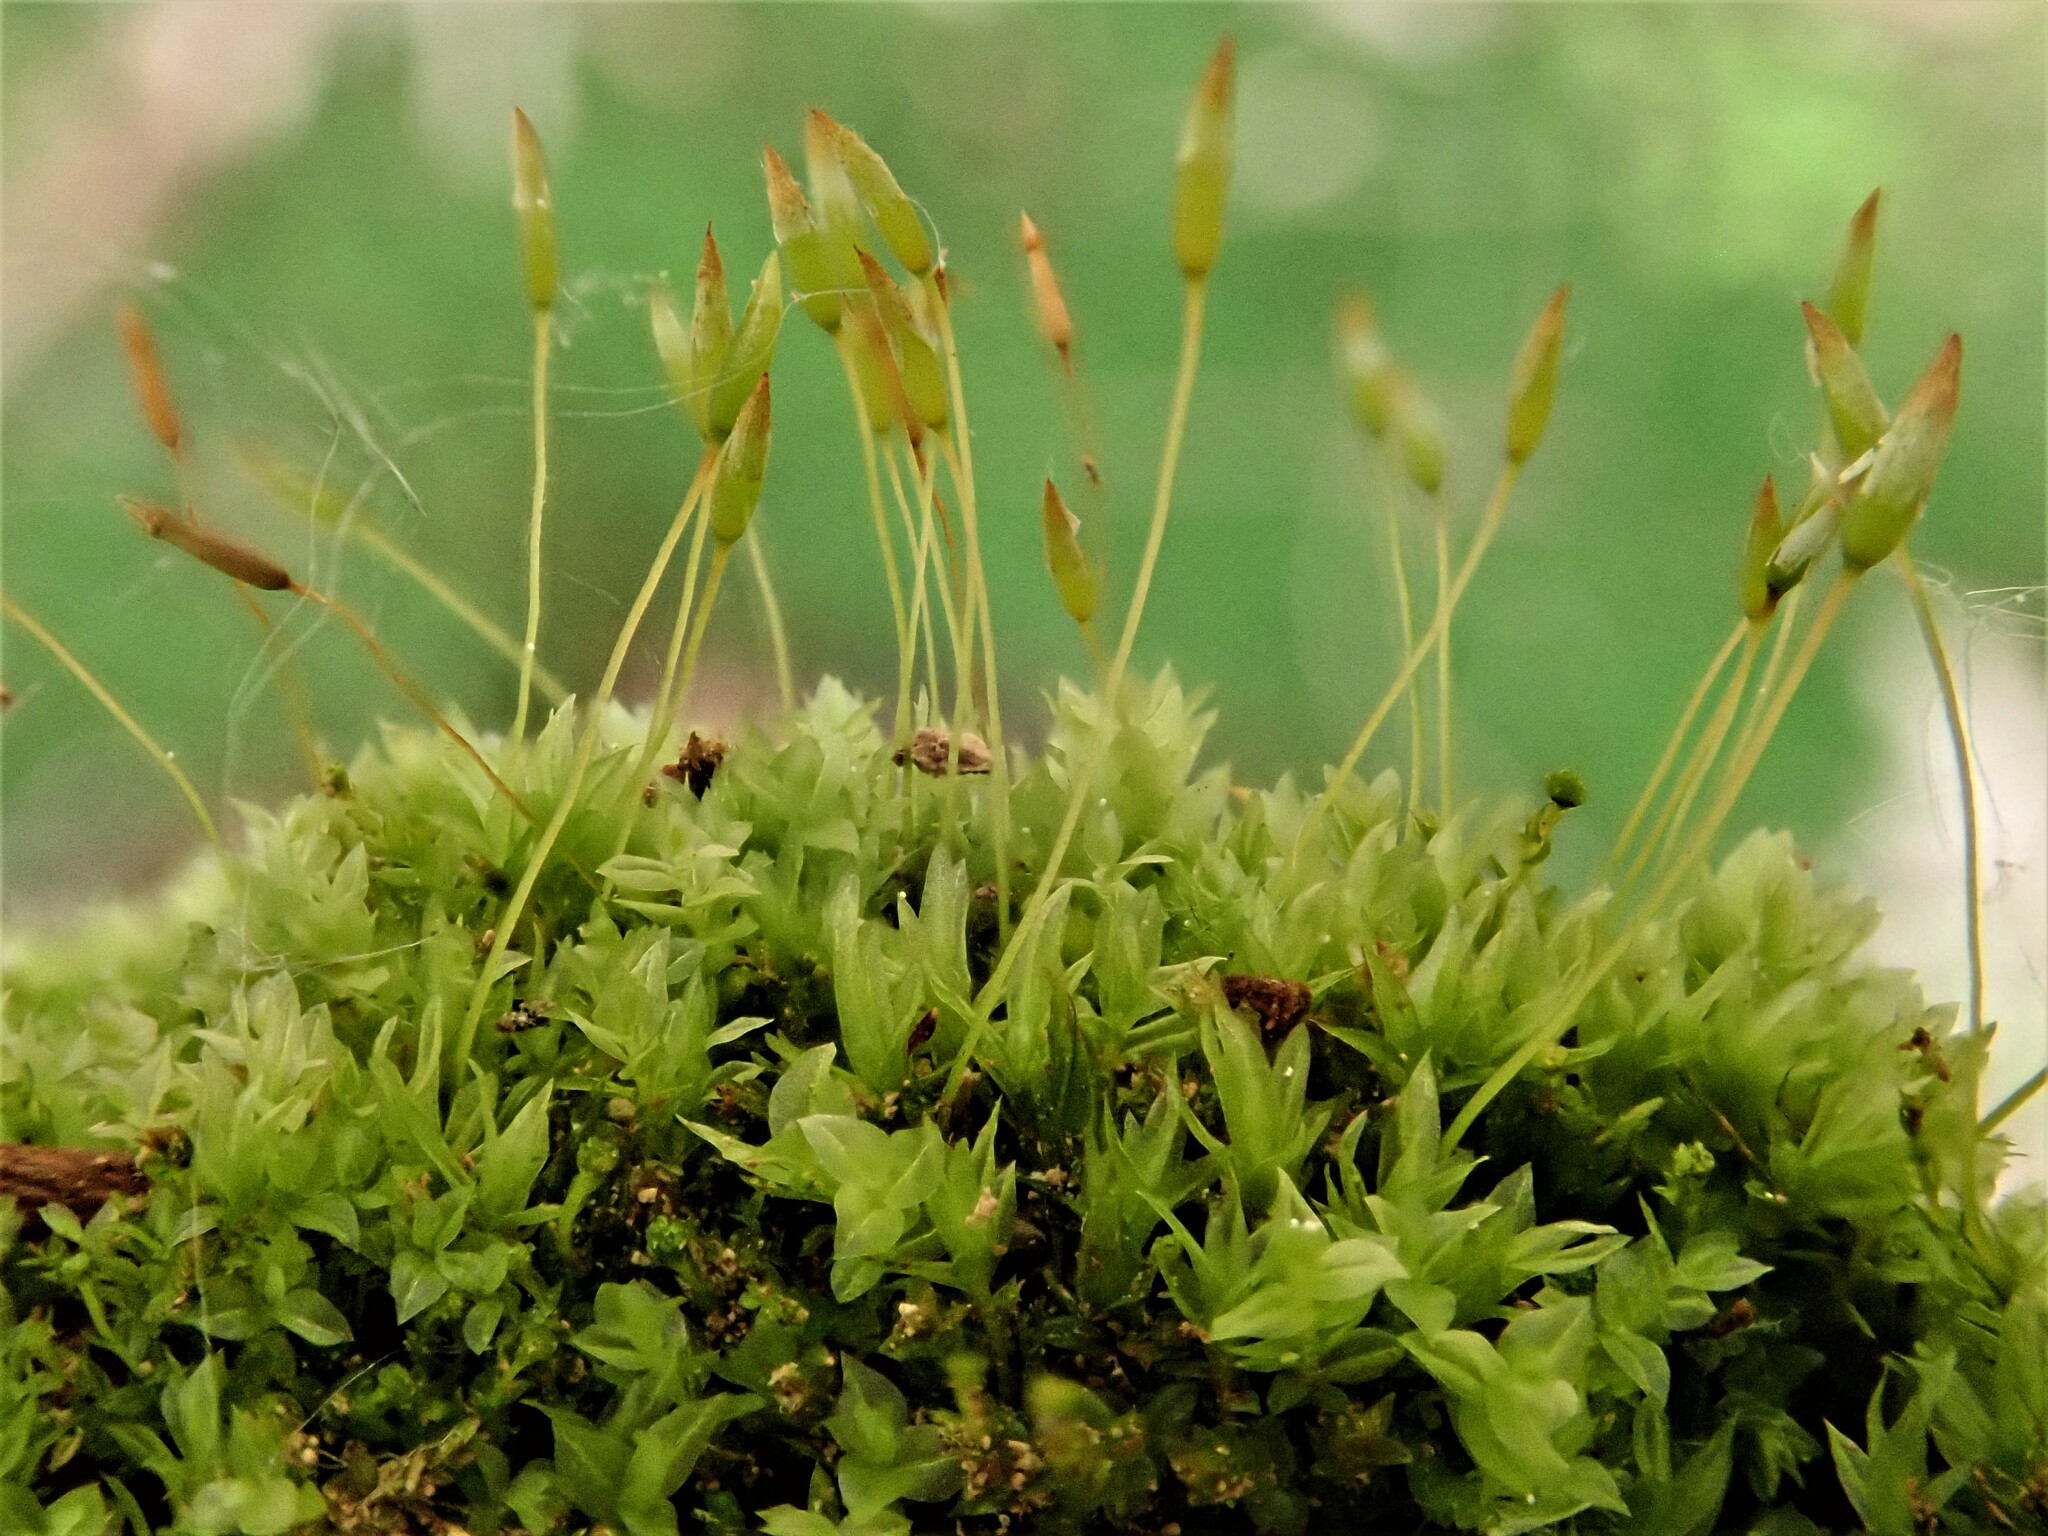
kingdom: Plantae
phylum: Bryophyta
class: Polytrichopsida
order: Tetraphidales
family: Tetraphidaceae
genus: Tetraphis
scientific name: Tetraphis pellucida
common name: Common four-toothed moss
